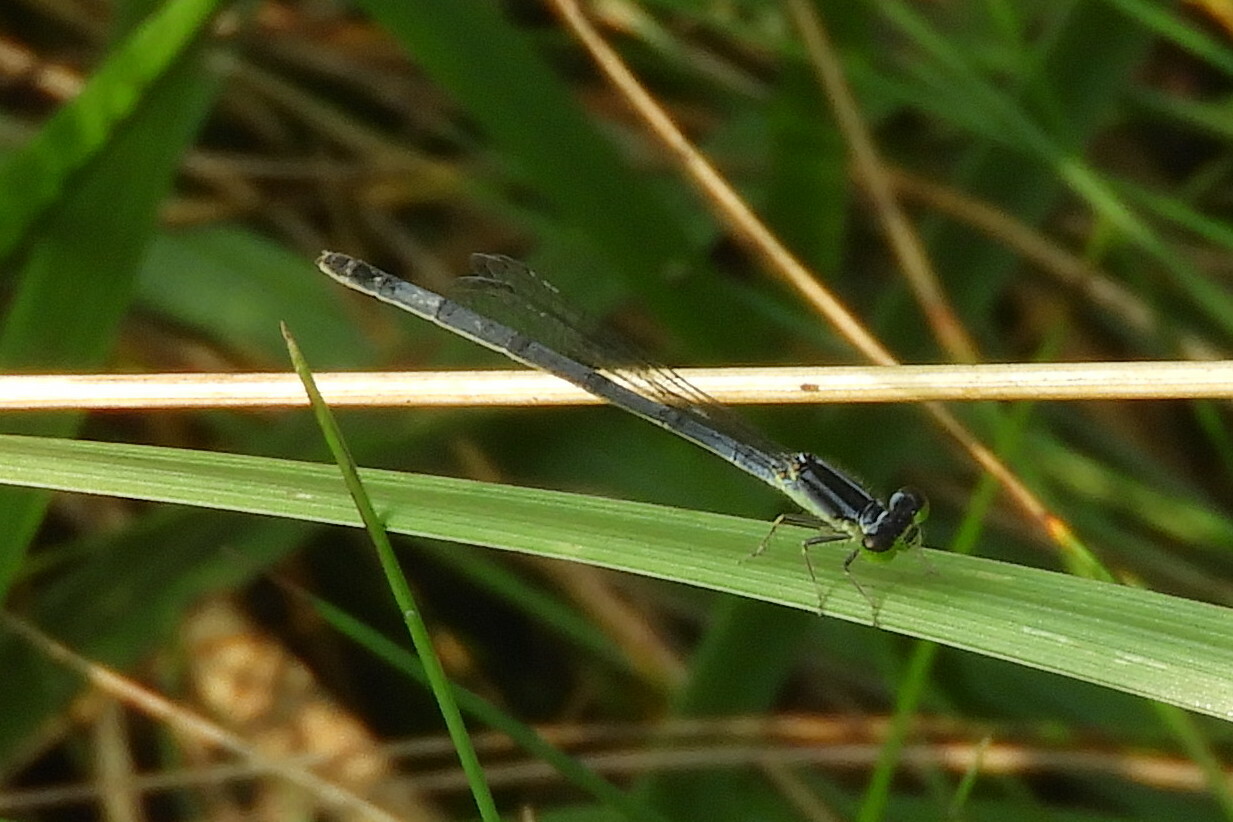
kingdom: Animalia
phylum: Arthropoda
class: Insecta
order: Odonata
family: Coenagrionidae
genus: Ischnura
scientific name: Ischnura verticalis
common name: Eastern forktail
